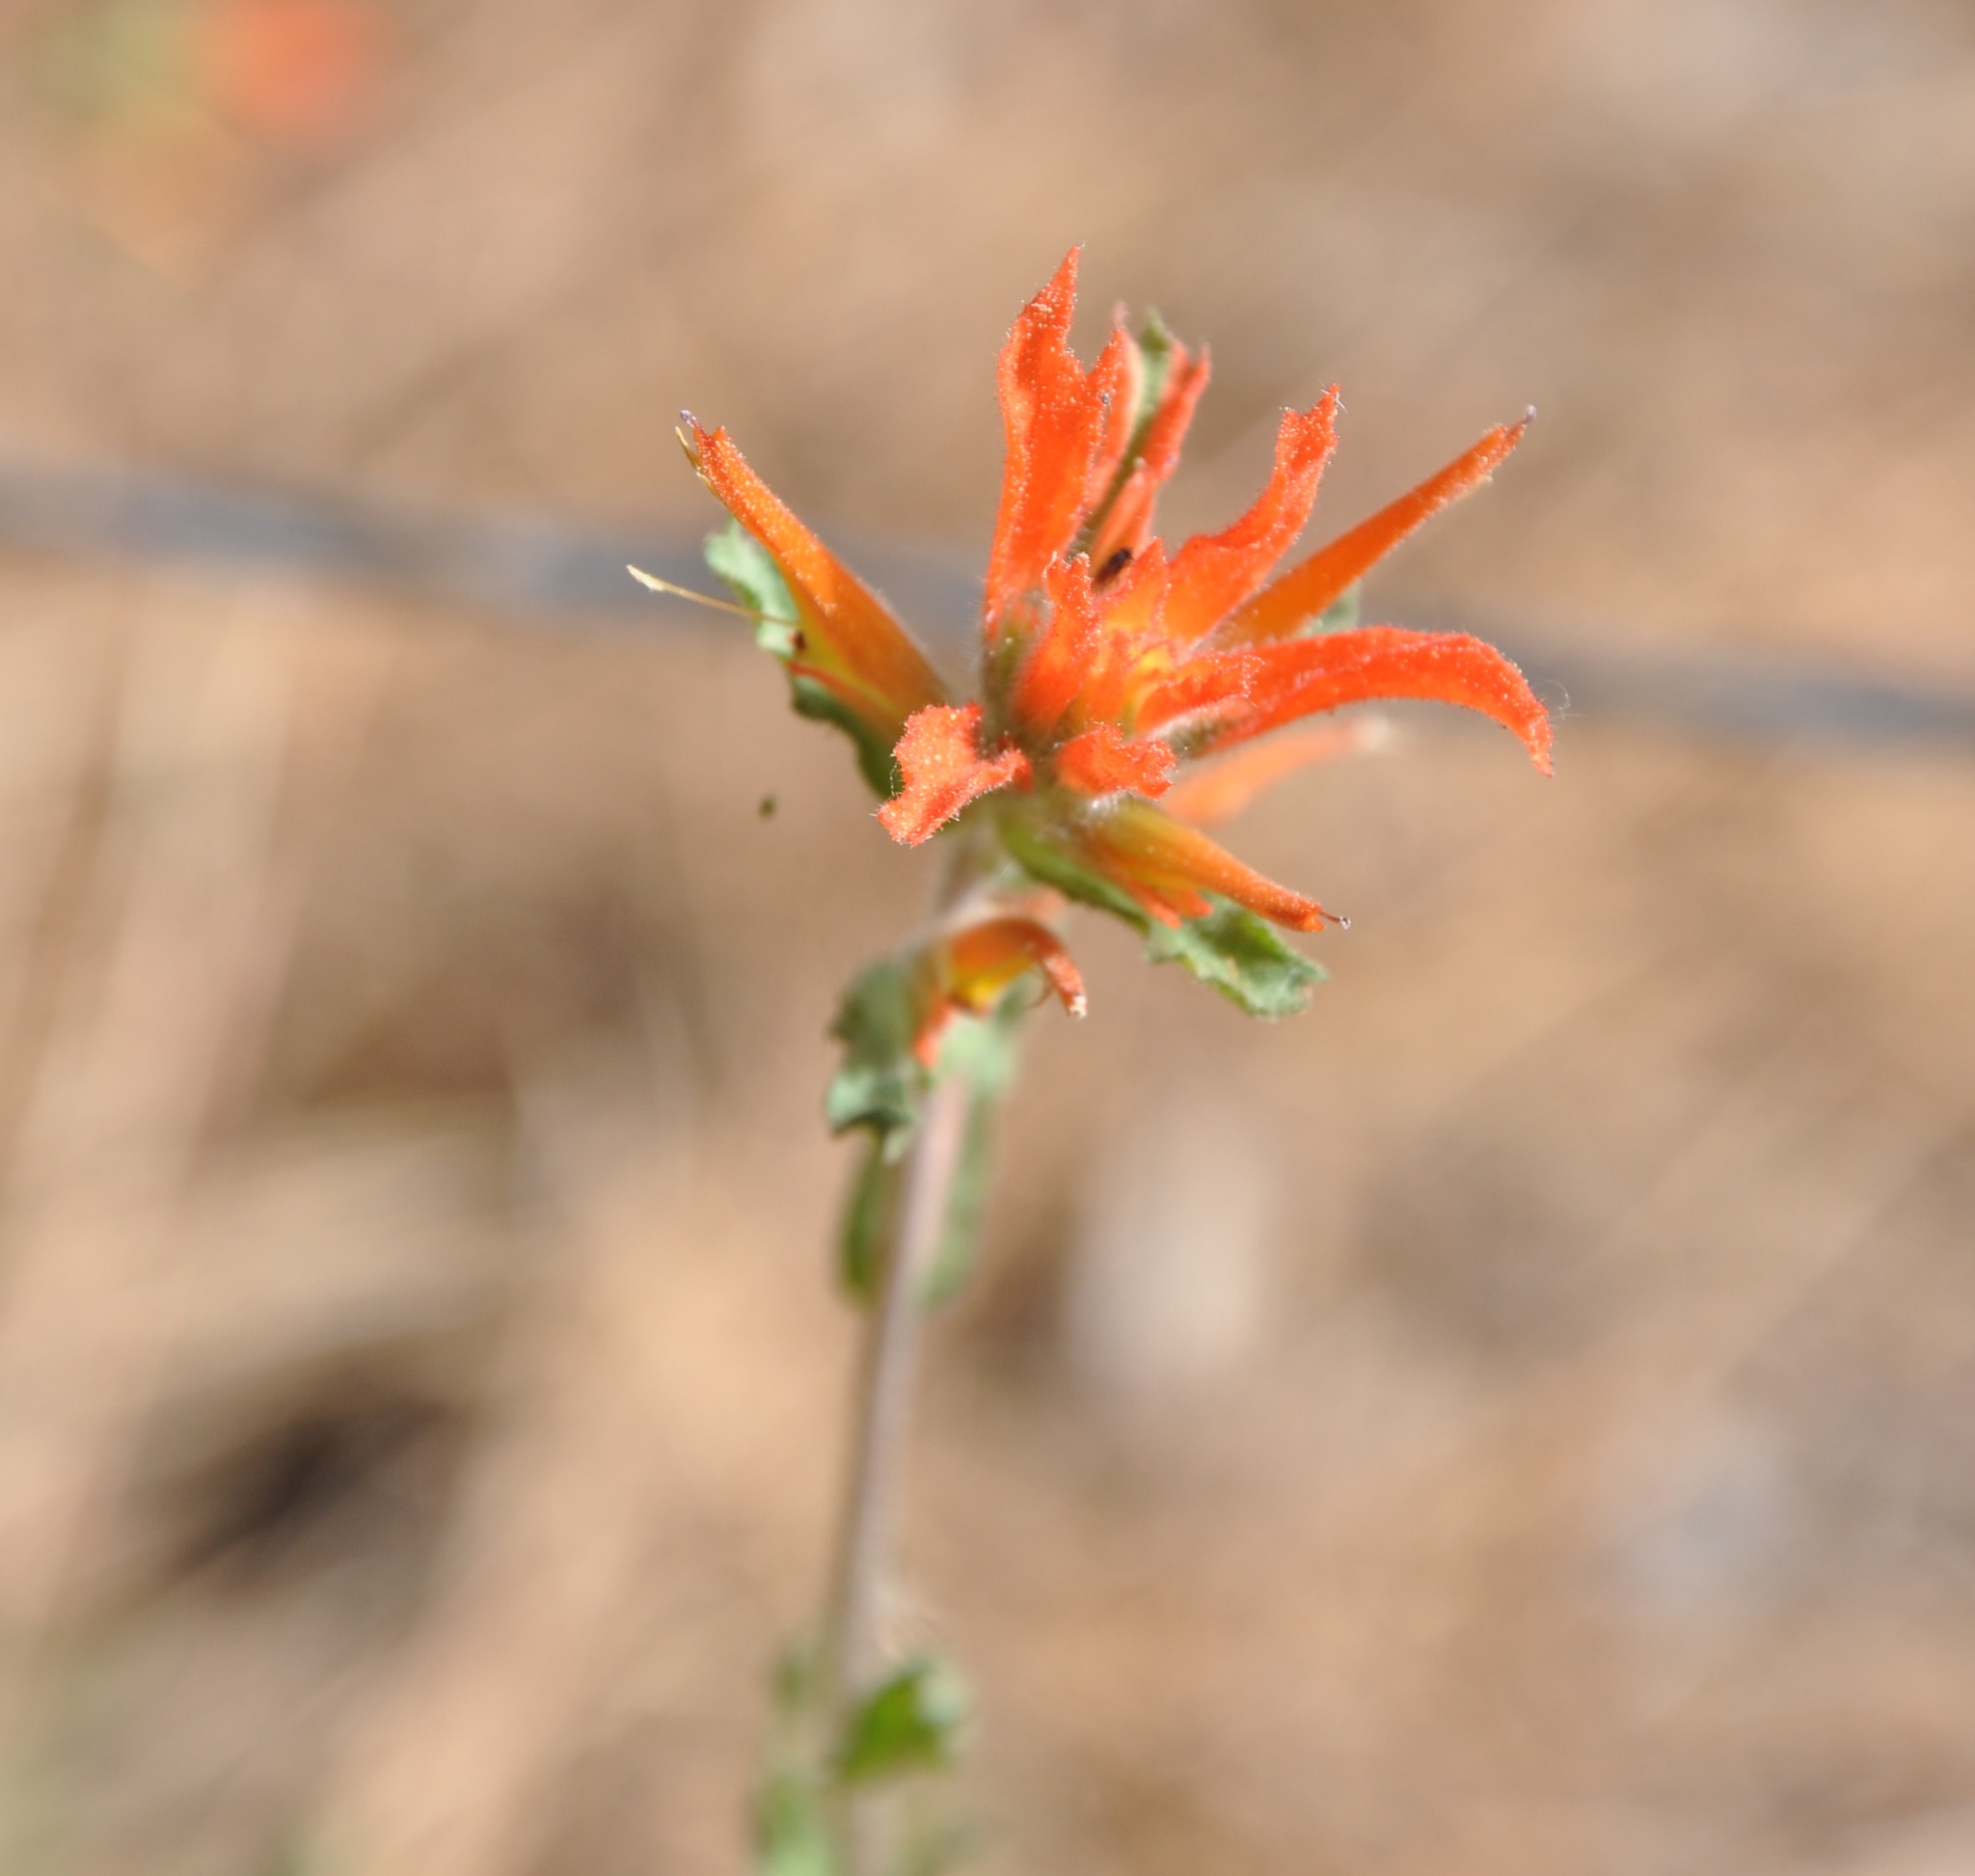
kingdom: Plantae
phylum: Tracheophyta
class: Magnoliopsida
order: Lamiales
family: Orobanchaceae
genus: Castilleja
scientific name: Castilleja disticha
